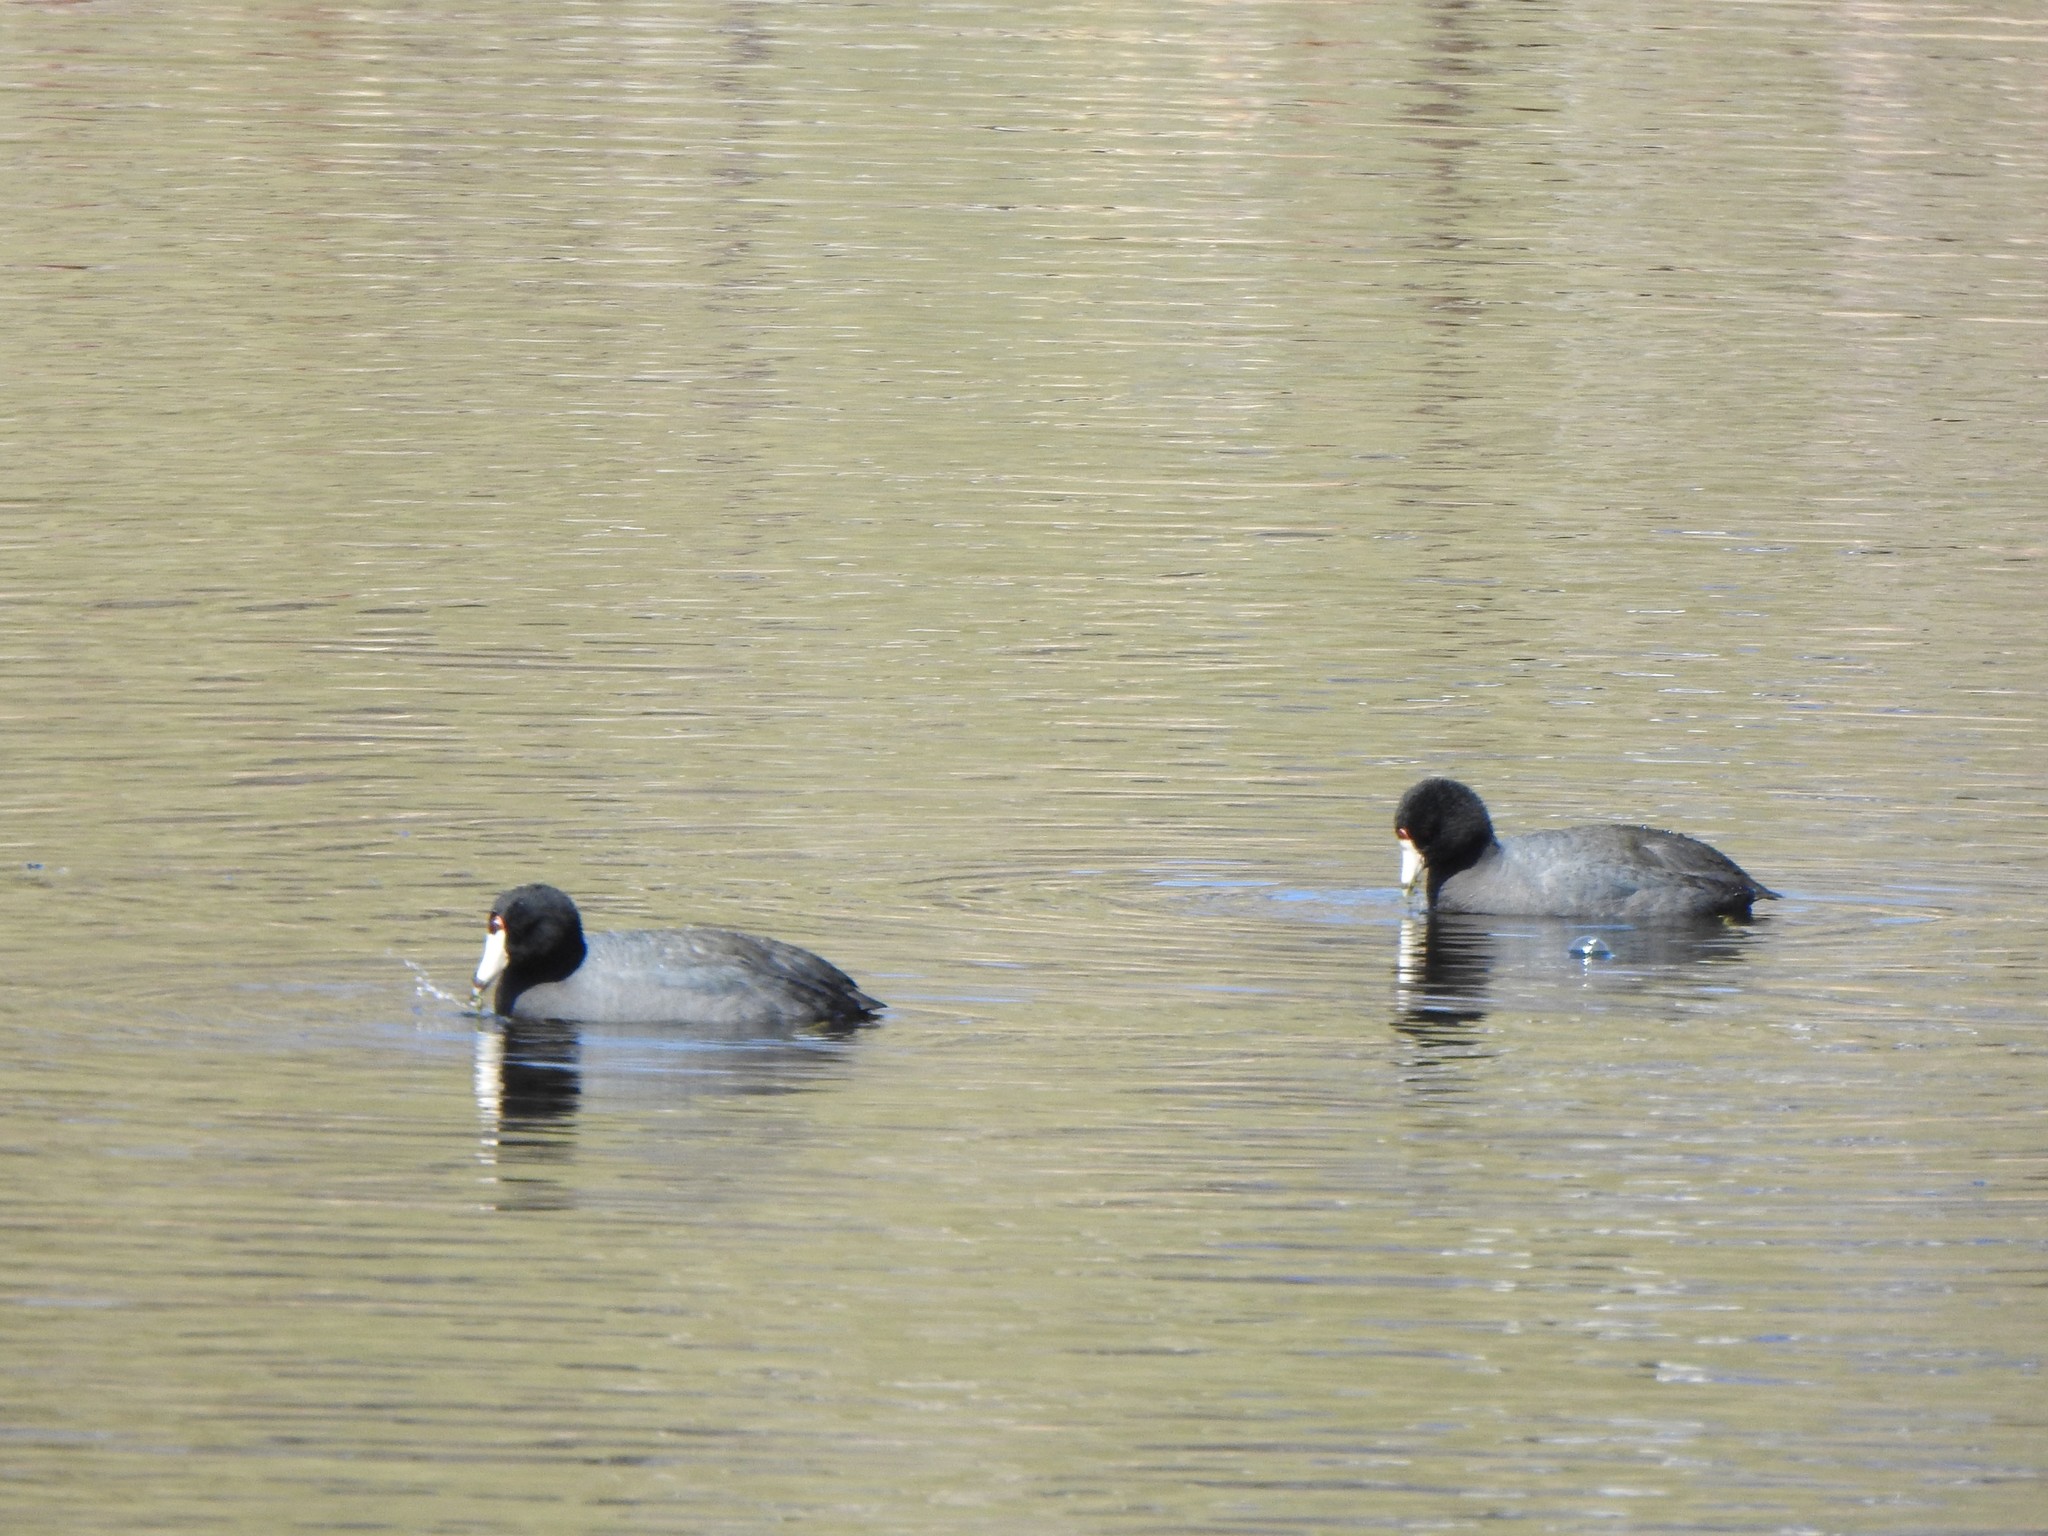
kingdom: Animalia
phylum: Chordata
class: Aves
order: Gruiformes
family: Rallidae
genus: Fulica
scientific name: Fulica americana
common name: American coot
